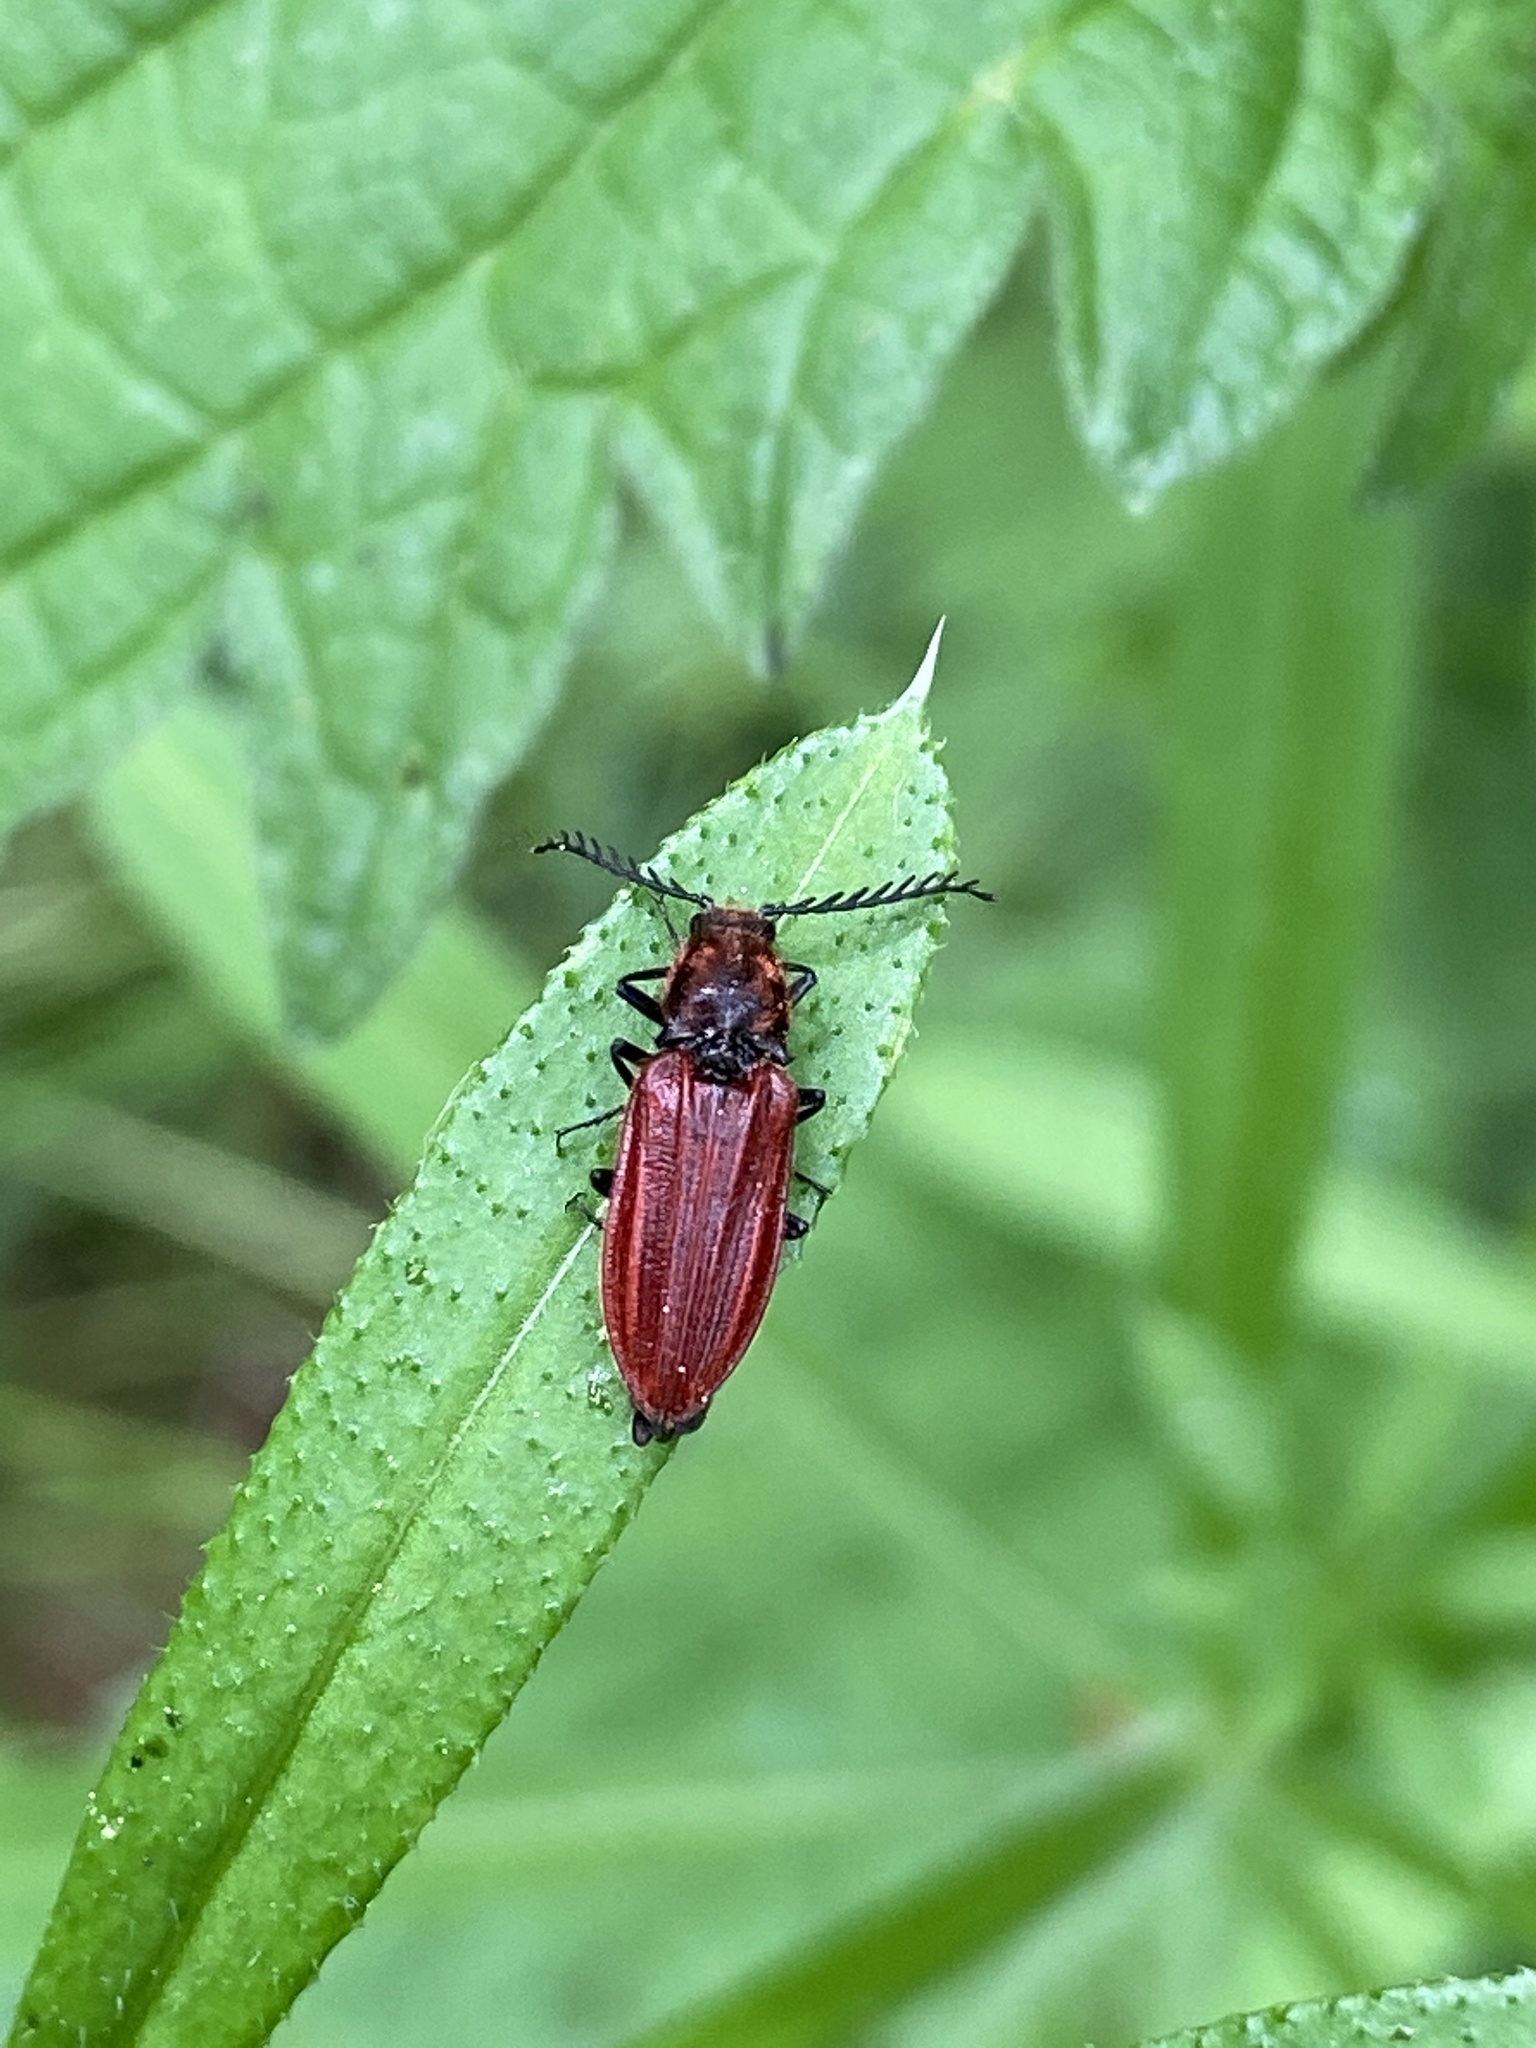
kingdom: Animalia
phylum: Arthropoda
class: Insecta
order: Coleoptera
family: Elateridae
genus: Anostirus
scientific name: Anostirus purpureus
